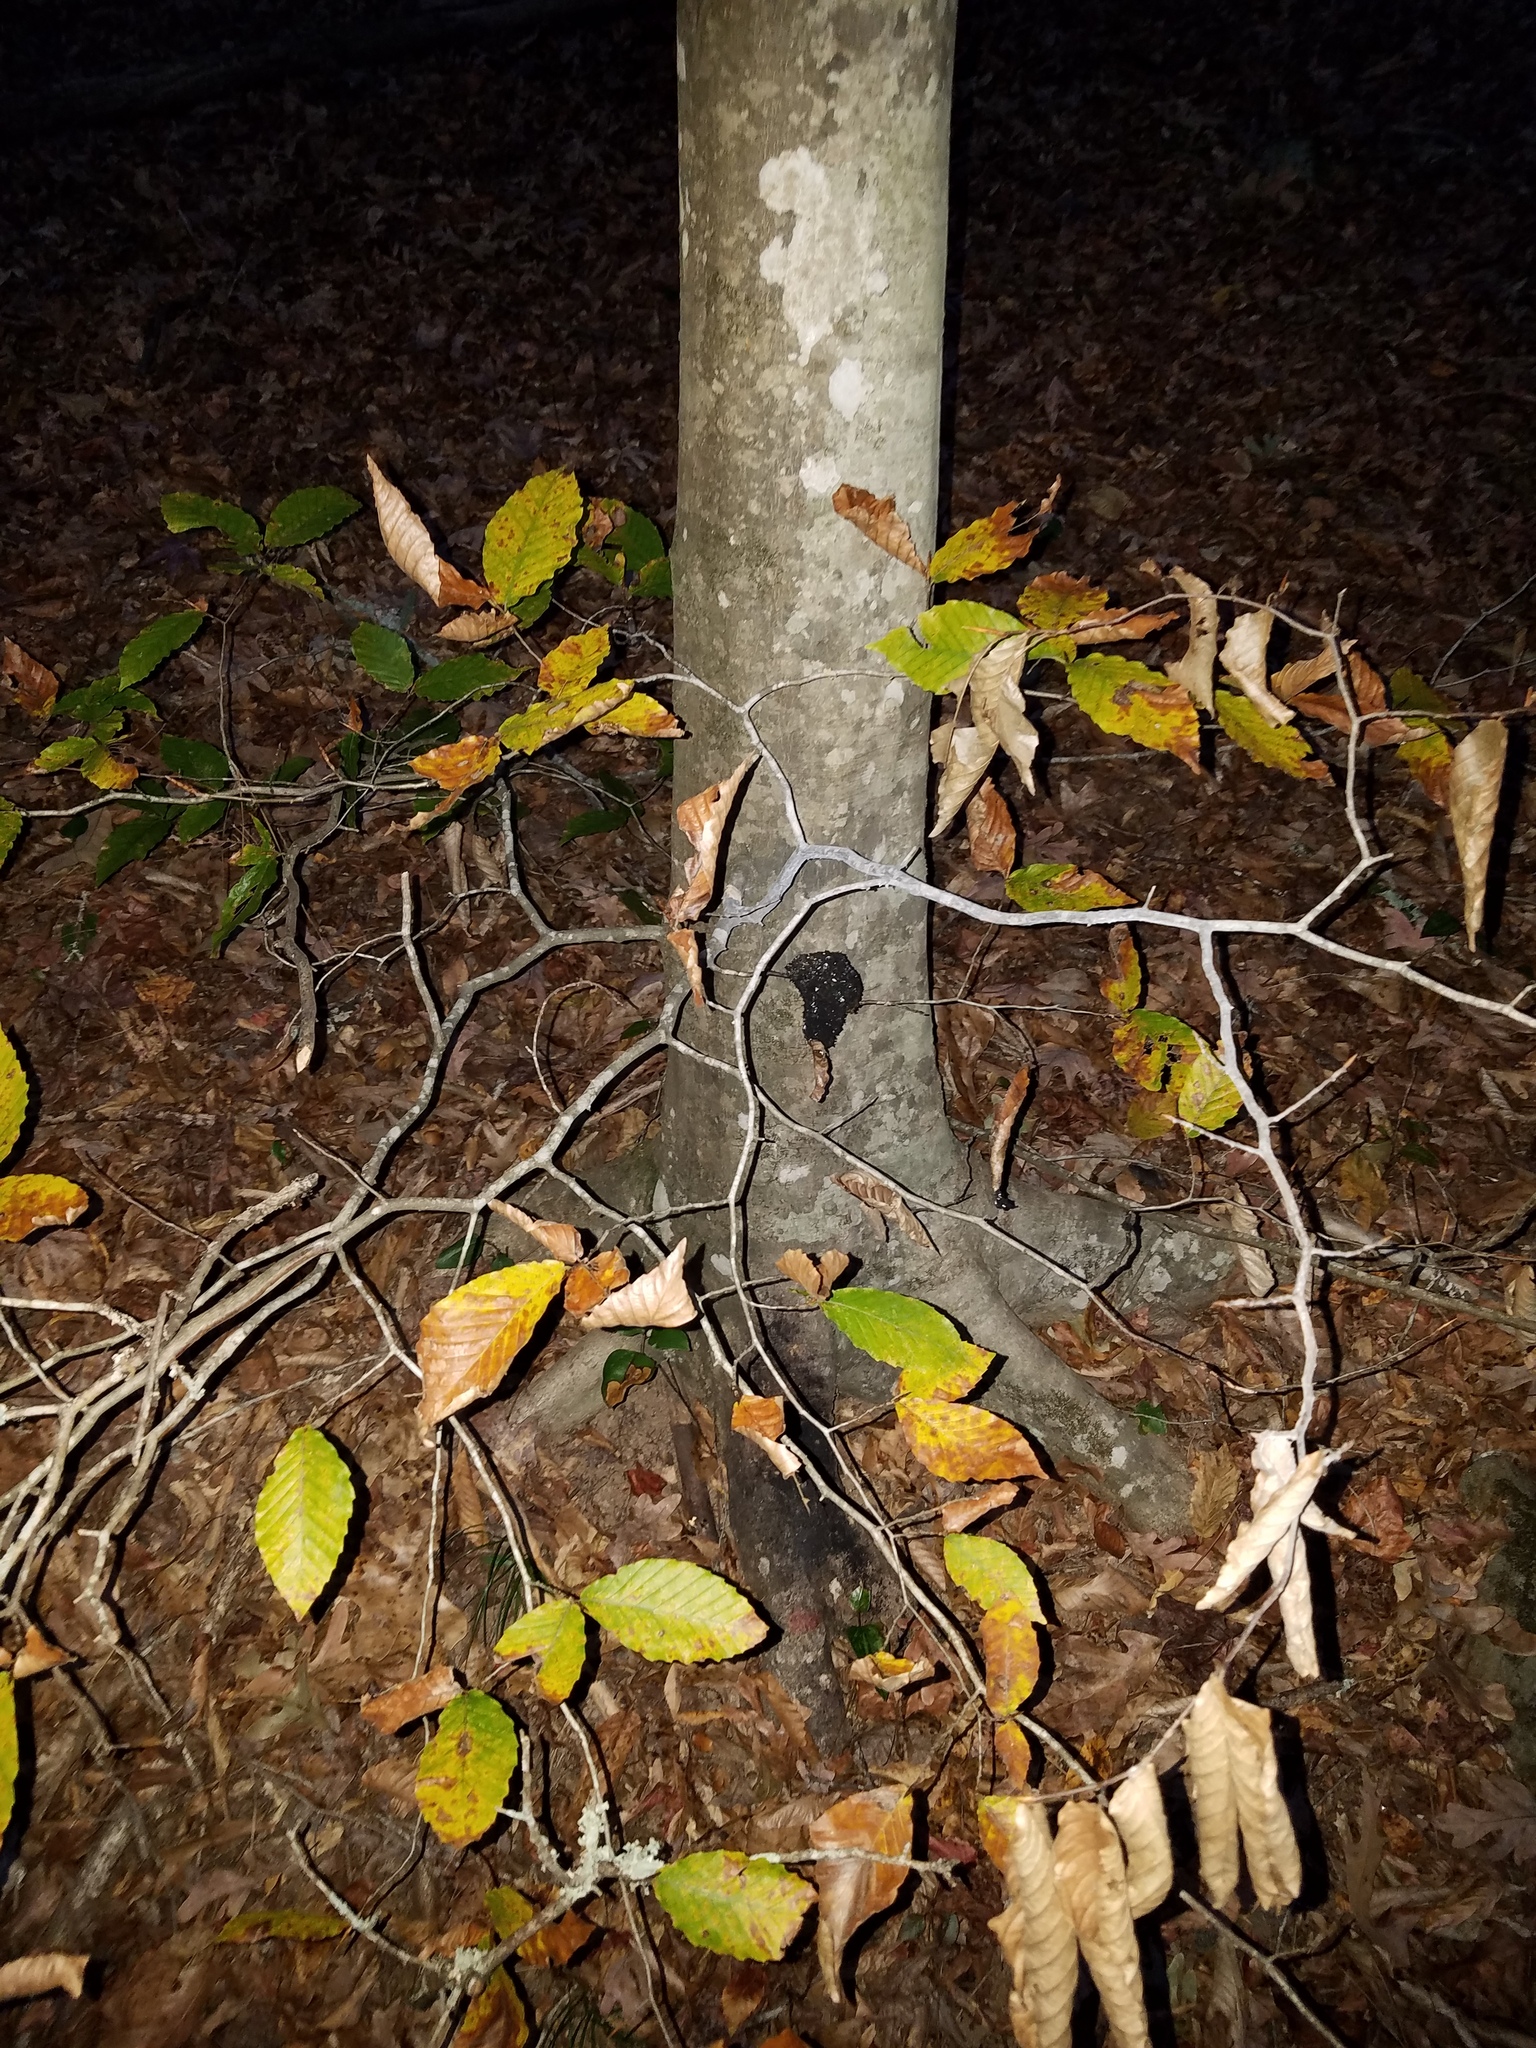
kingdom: Plantae
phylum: Tracheophyta
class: Magnoliopsida
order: Fagales
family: Fagaceae
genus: Fagus
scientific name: Fagus grandifolia
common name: American beech
